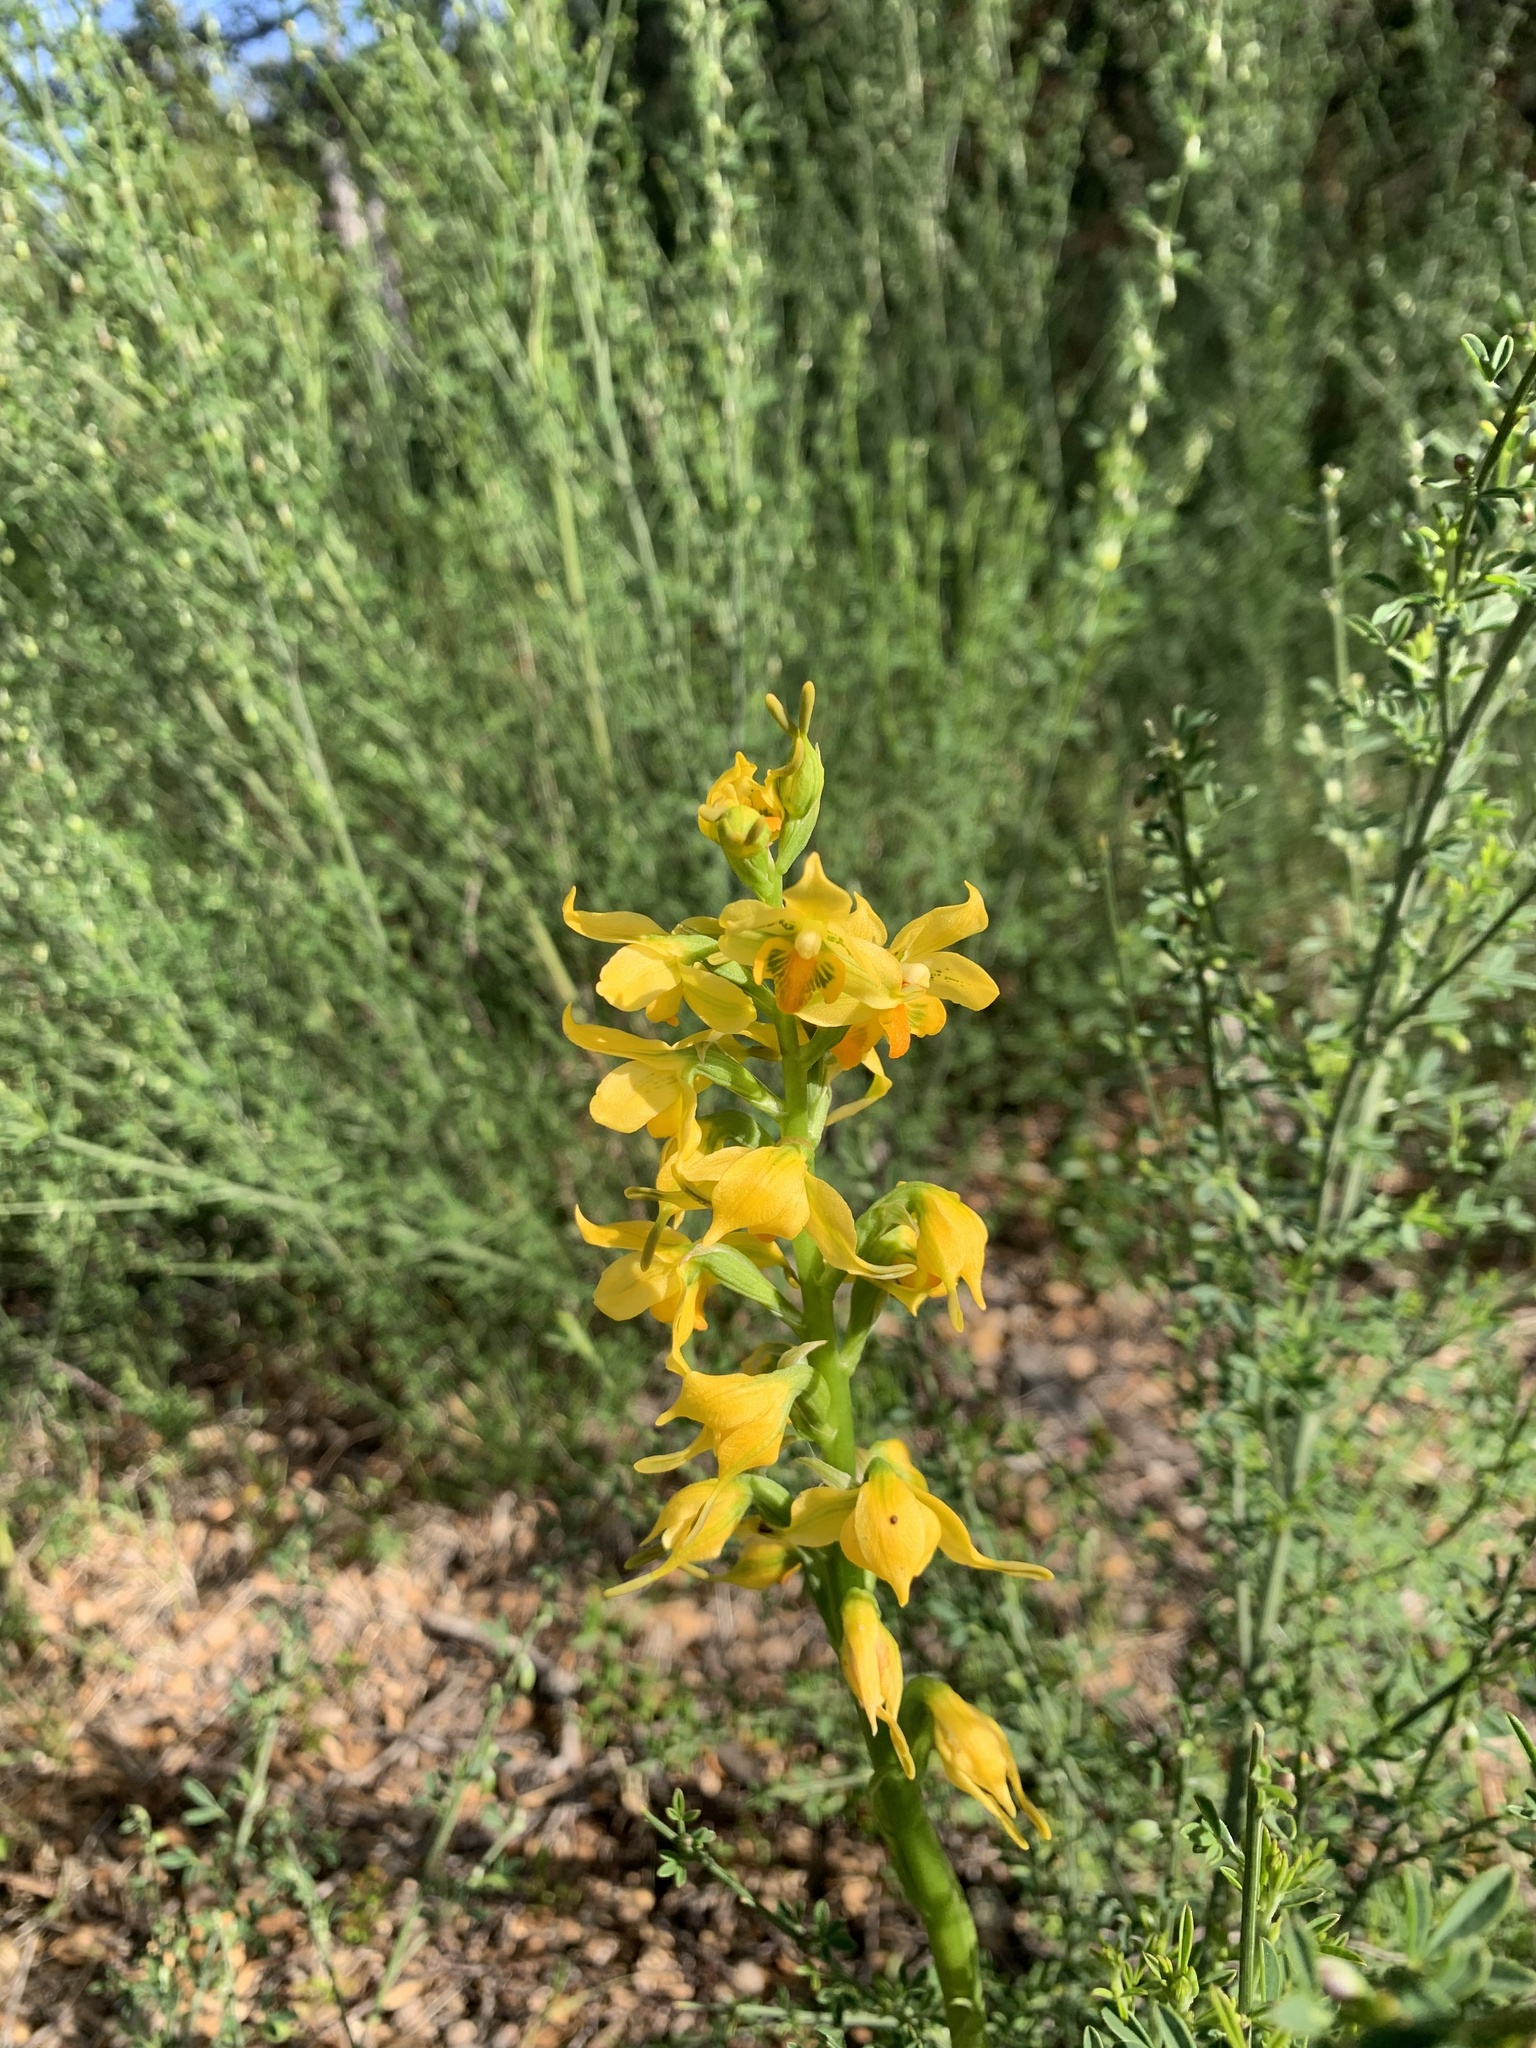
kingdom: Plantae
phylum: Tracheophyta
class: Liliopsida
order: Asparagales
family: Orchidaceae
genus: Gavilea
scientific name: Gavilea odoratissima
